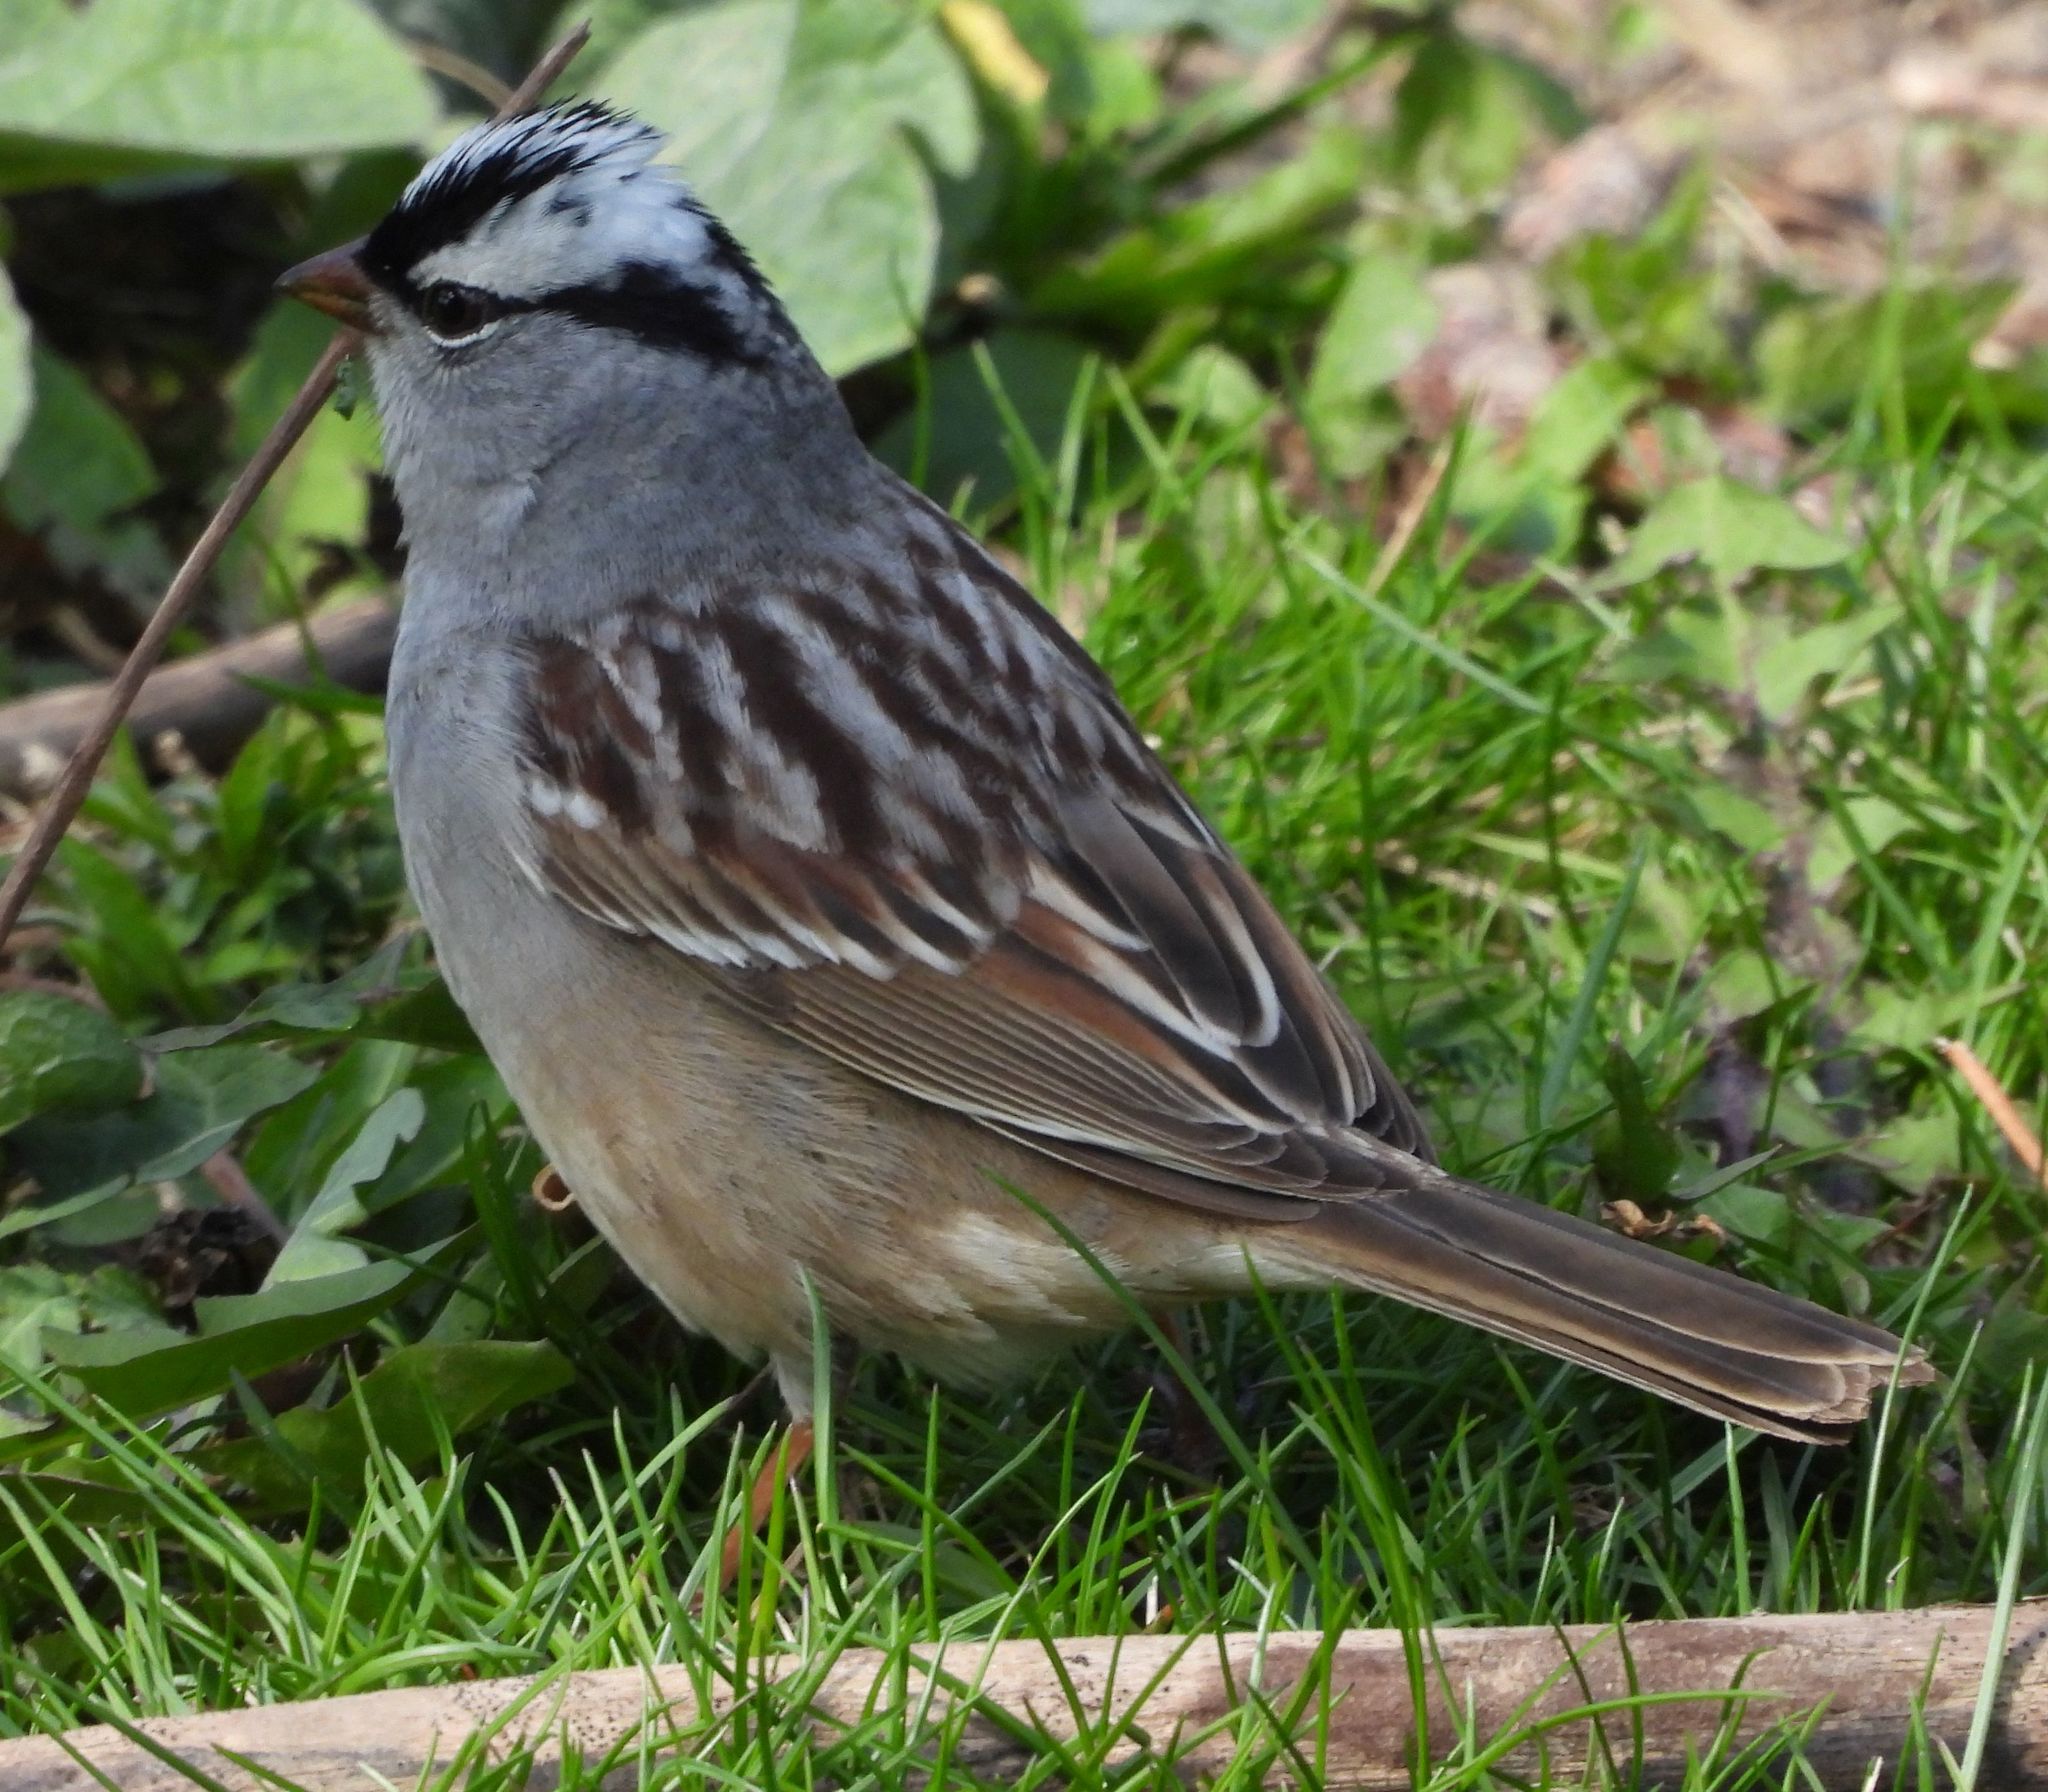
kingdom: Animalia
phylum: Chordata
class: Aves
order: Passeriformes
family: Passerellidae
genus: Zonotrichia
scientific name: Zonotrichia leucophrys
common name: White-crowned sparrow
